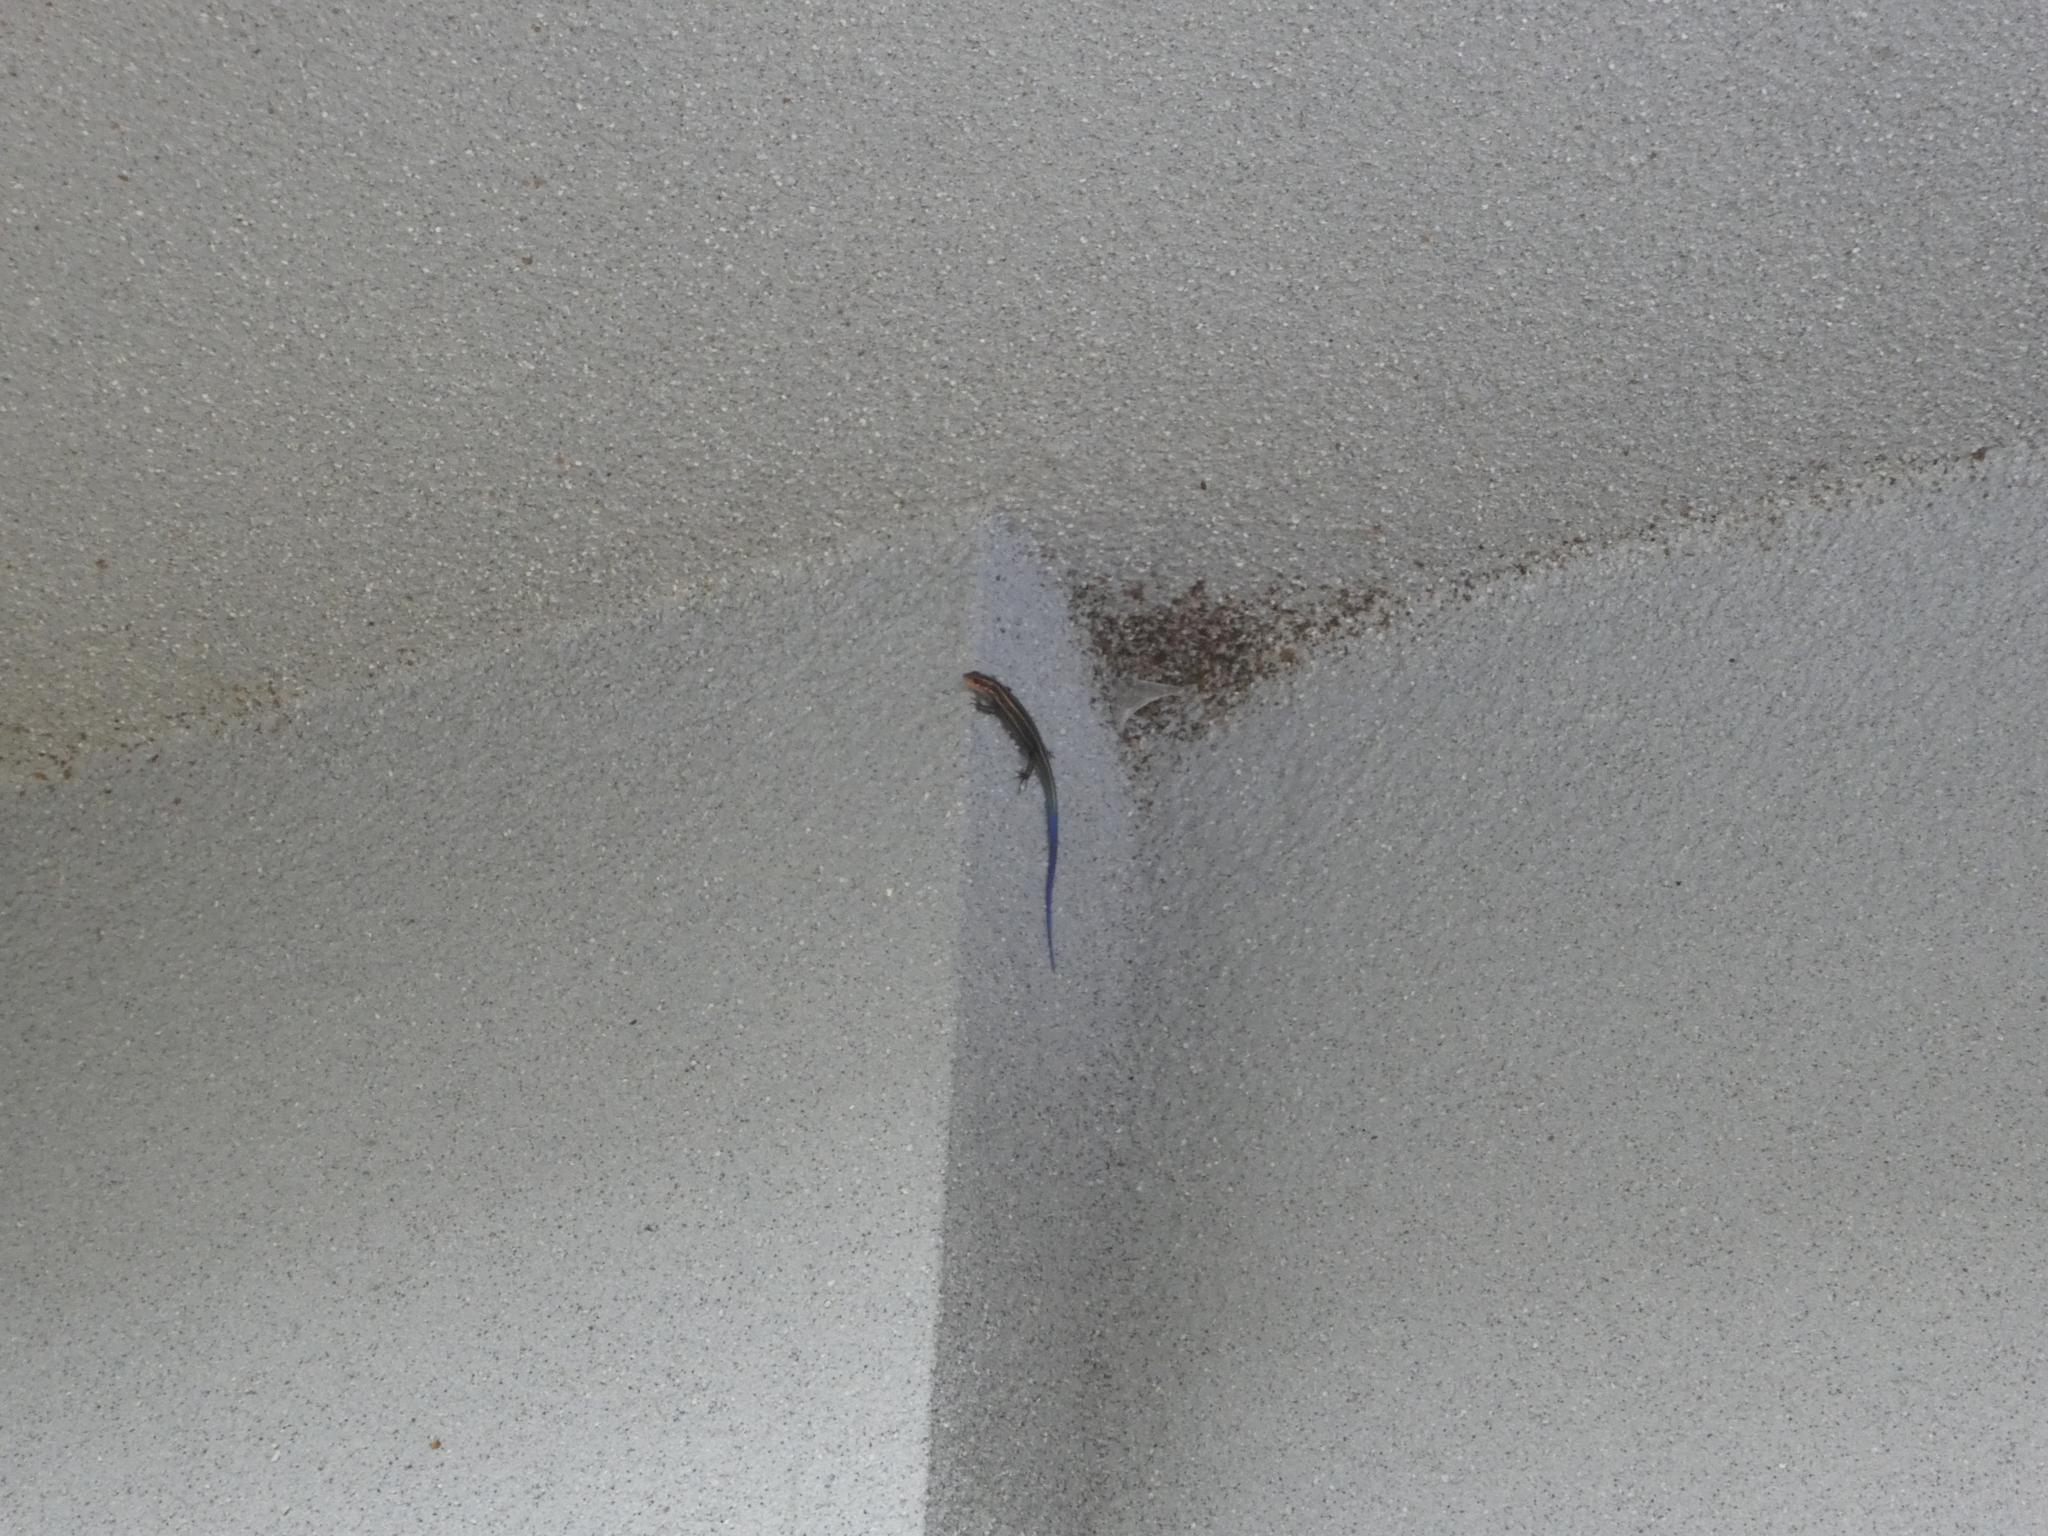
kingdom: Animalia
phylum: Chordata
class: Squamata
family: Scincidae
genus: Plestiodon
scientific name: Plestiodon japonicus
